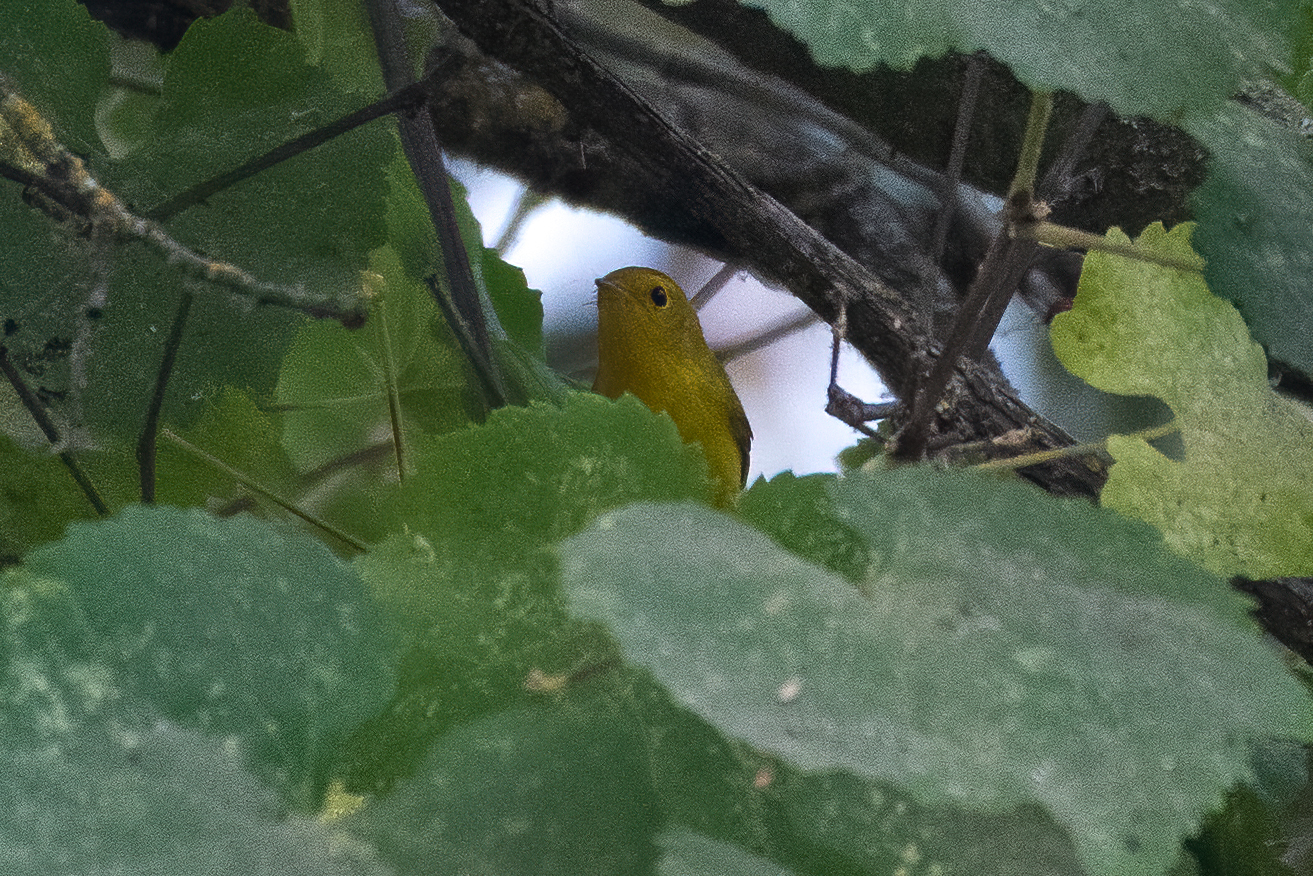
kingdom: Animalia
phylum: Chordata
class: Aves
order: Passeriformes
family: Parulidae
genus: Cardellina
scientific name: Cardellina pusilla
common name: Wilson's warbler
